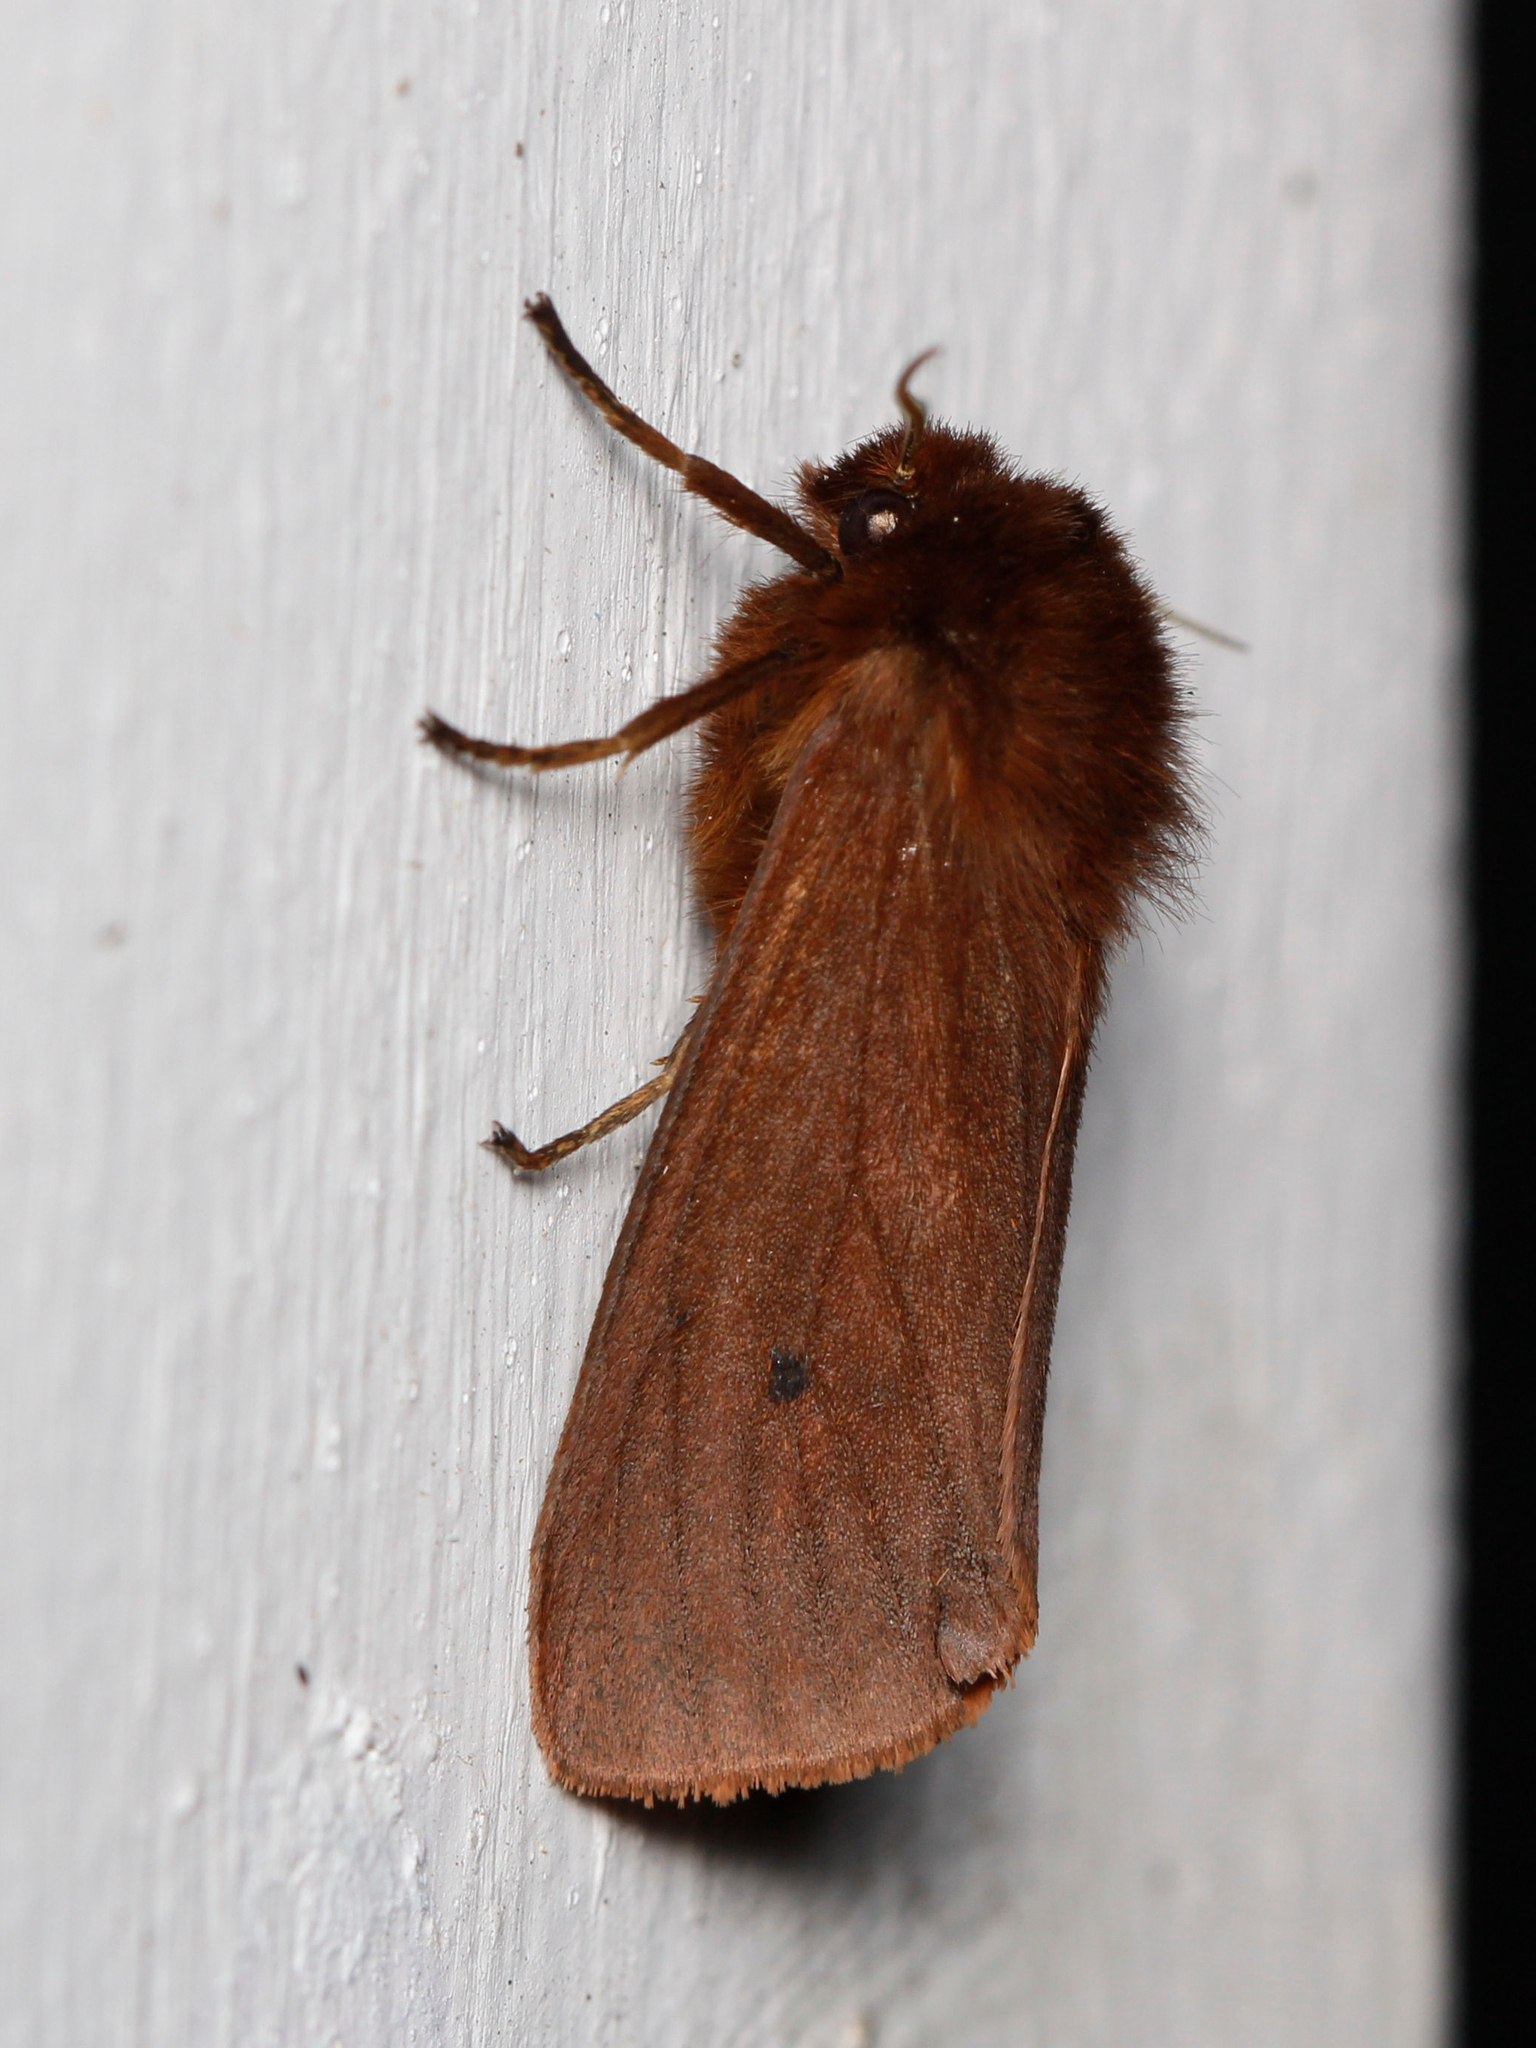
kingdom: Animalia
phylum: Arthropoda
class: Insecta
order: Lepidoptera
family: Erebidae
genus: Phragmatobia
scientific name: Phragmatobia fuliginosa
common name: Ruby tiger
